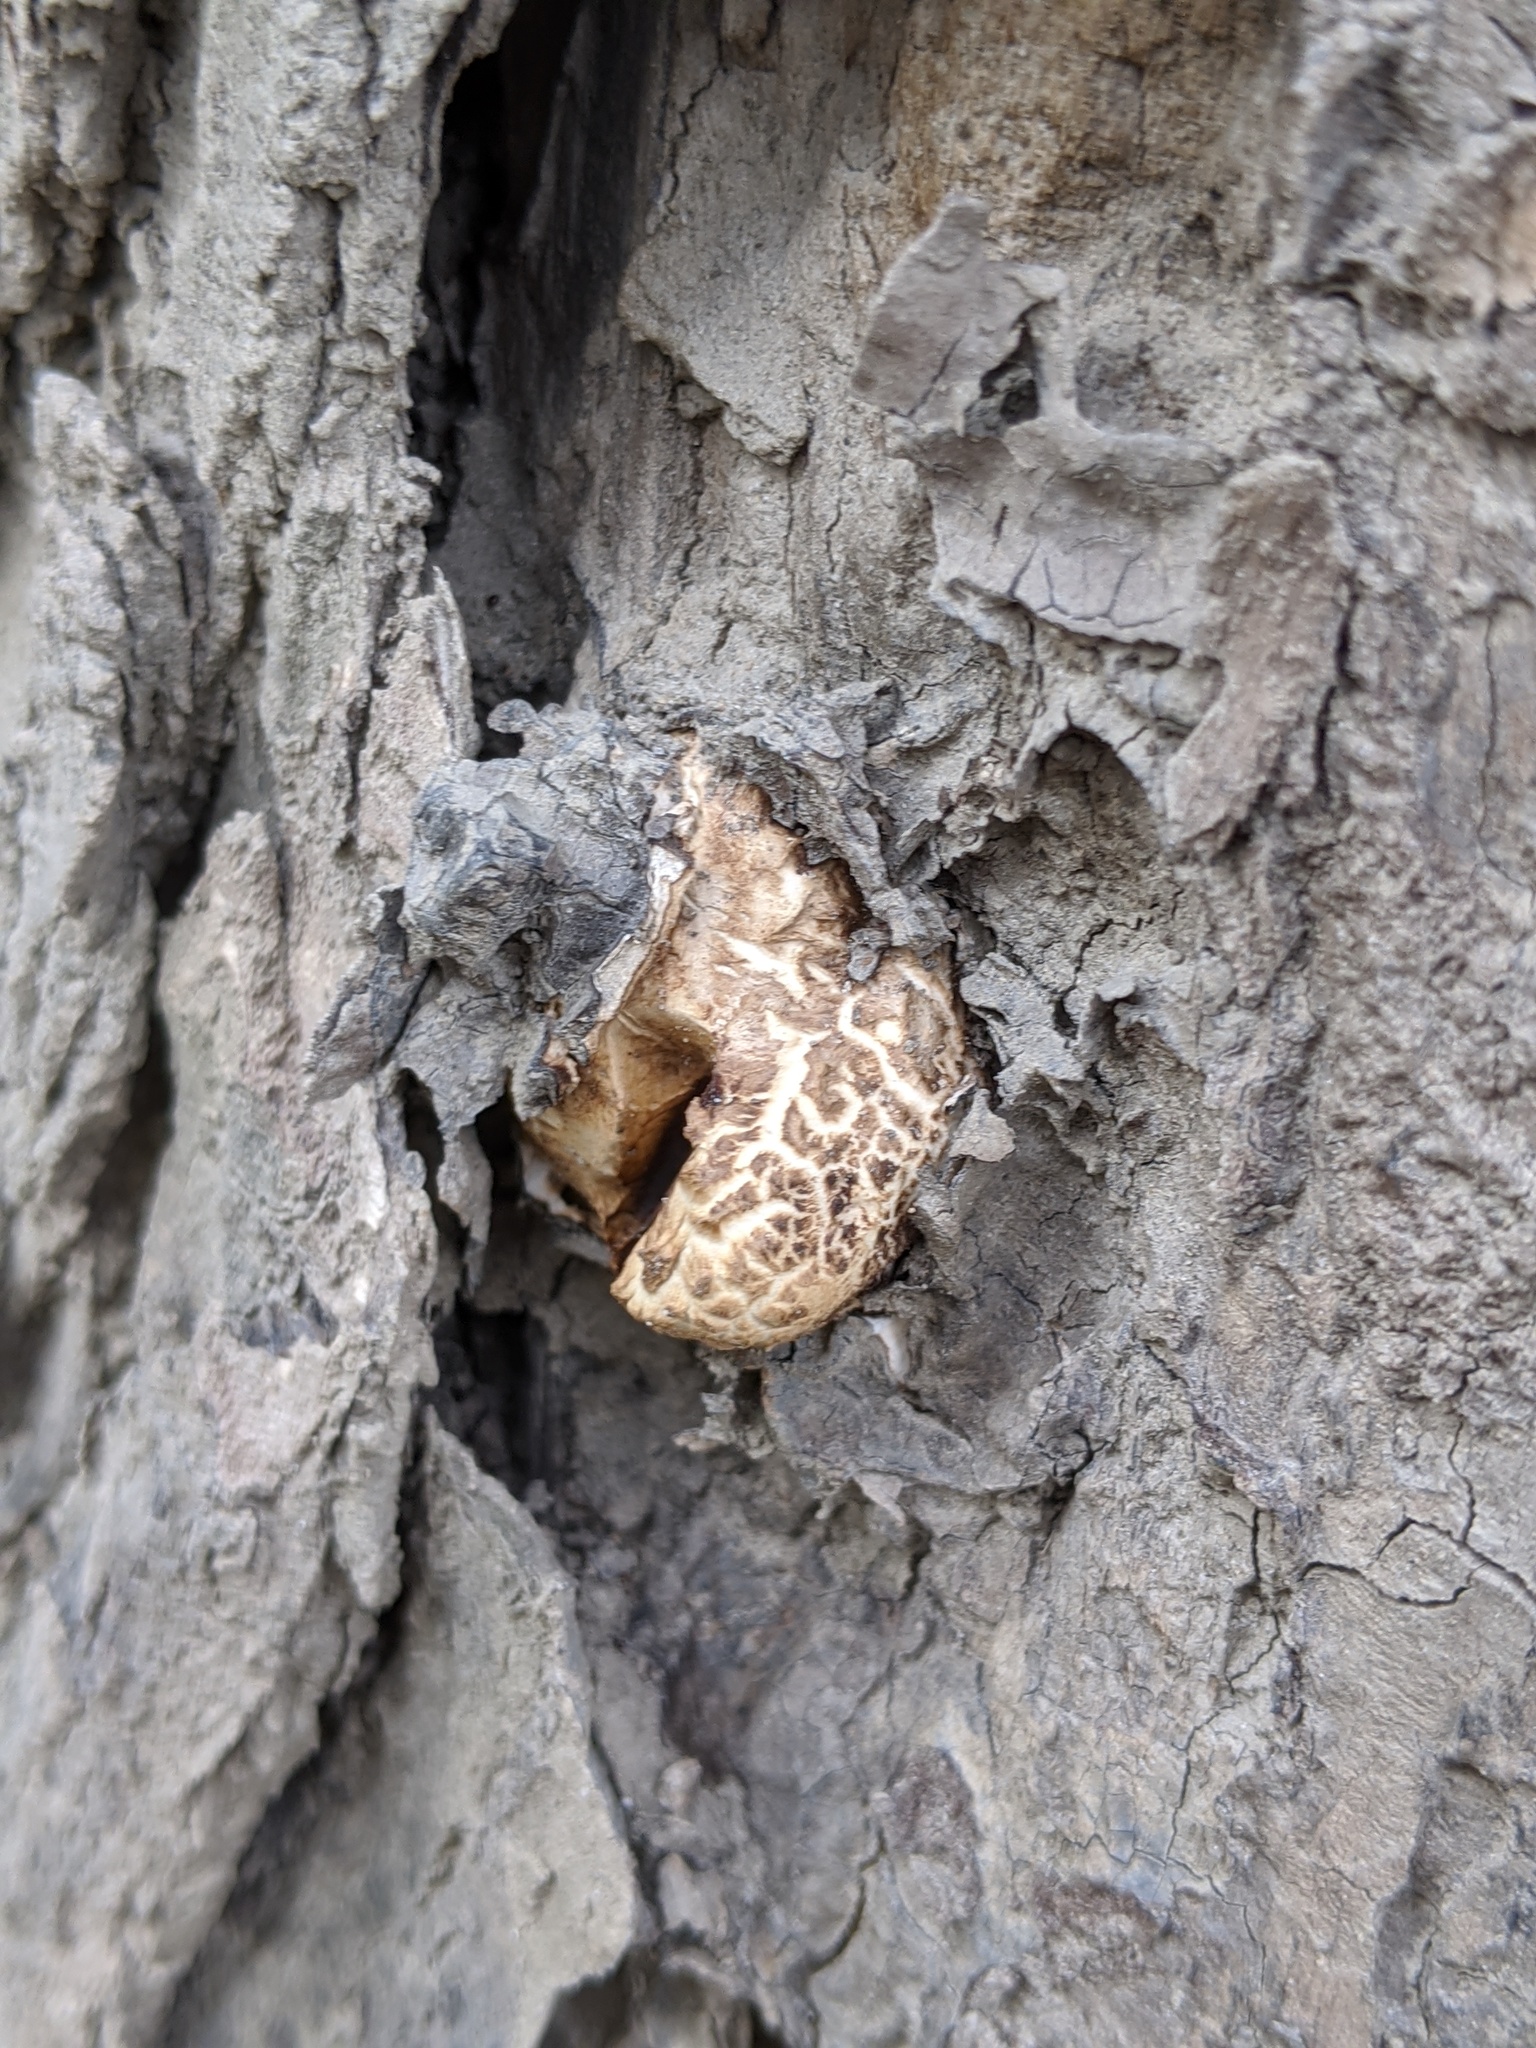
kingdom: Fungi
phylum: Basidiomycota
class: Agaricomycetes
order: Polyporales
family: Polyporaceae
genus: Cerioporus
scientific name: Cerioporus squamosus
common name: Dryad's saddle
